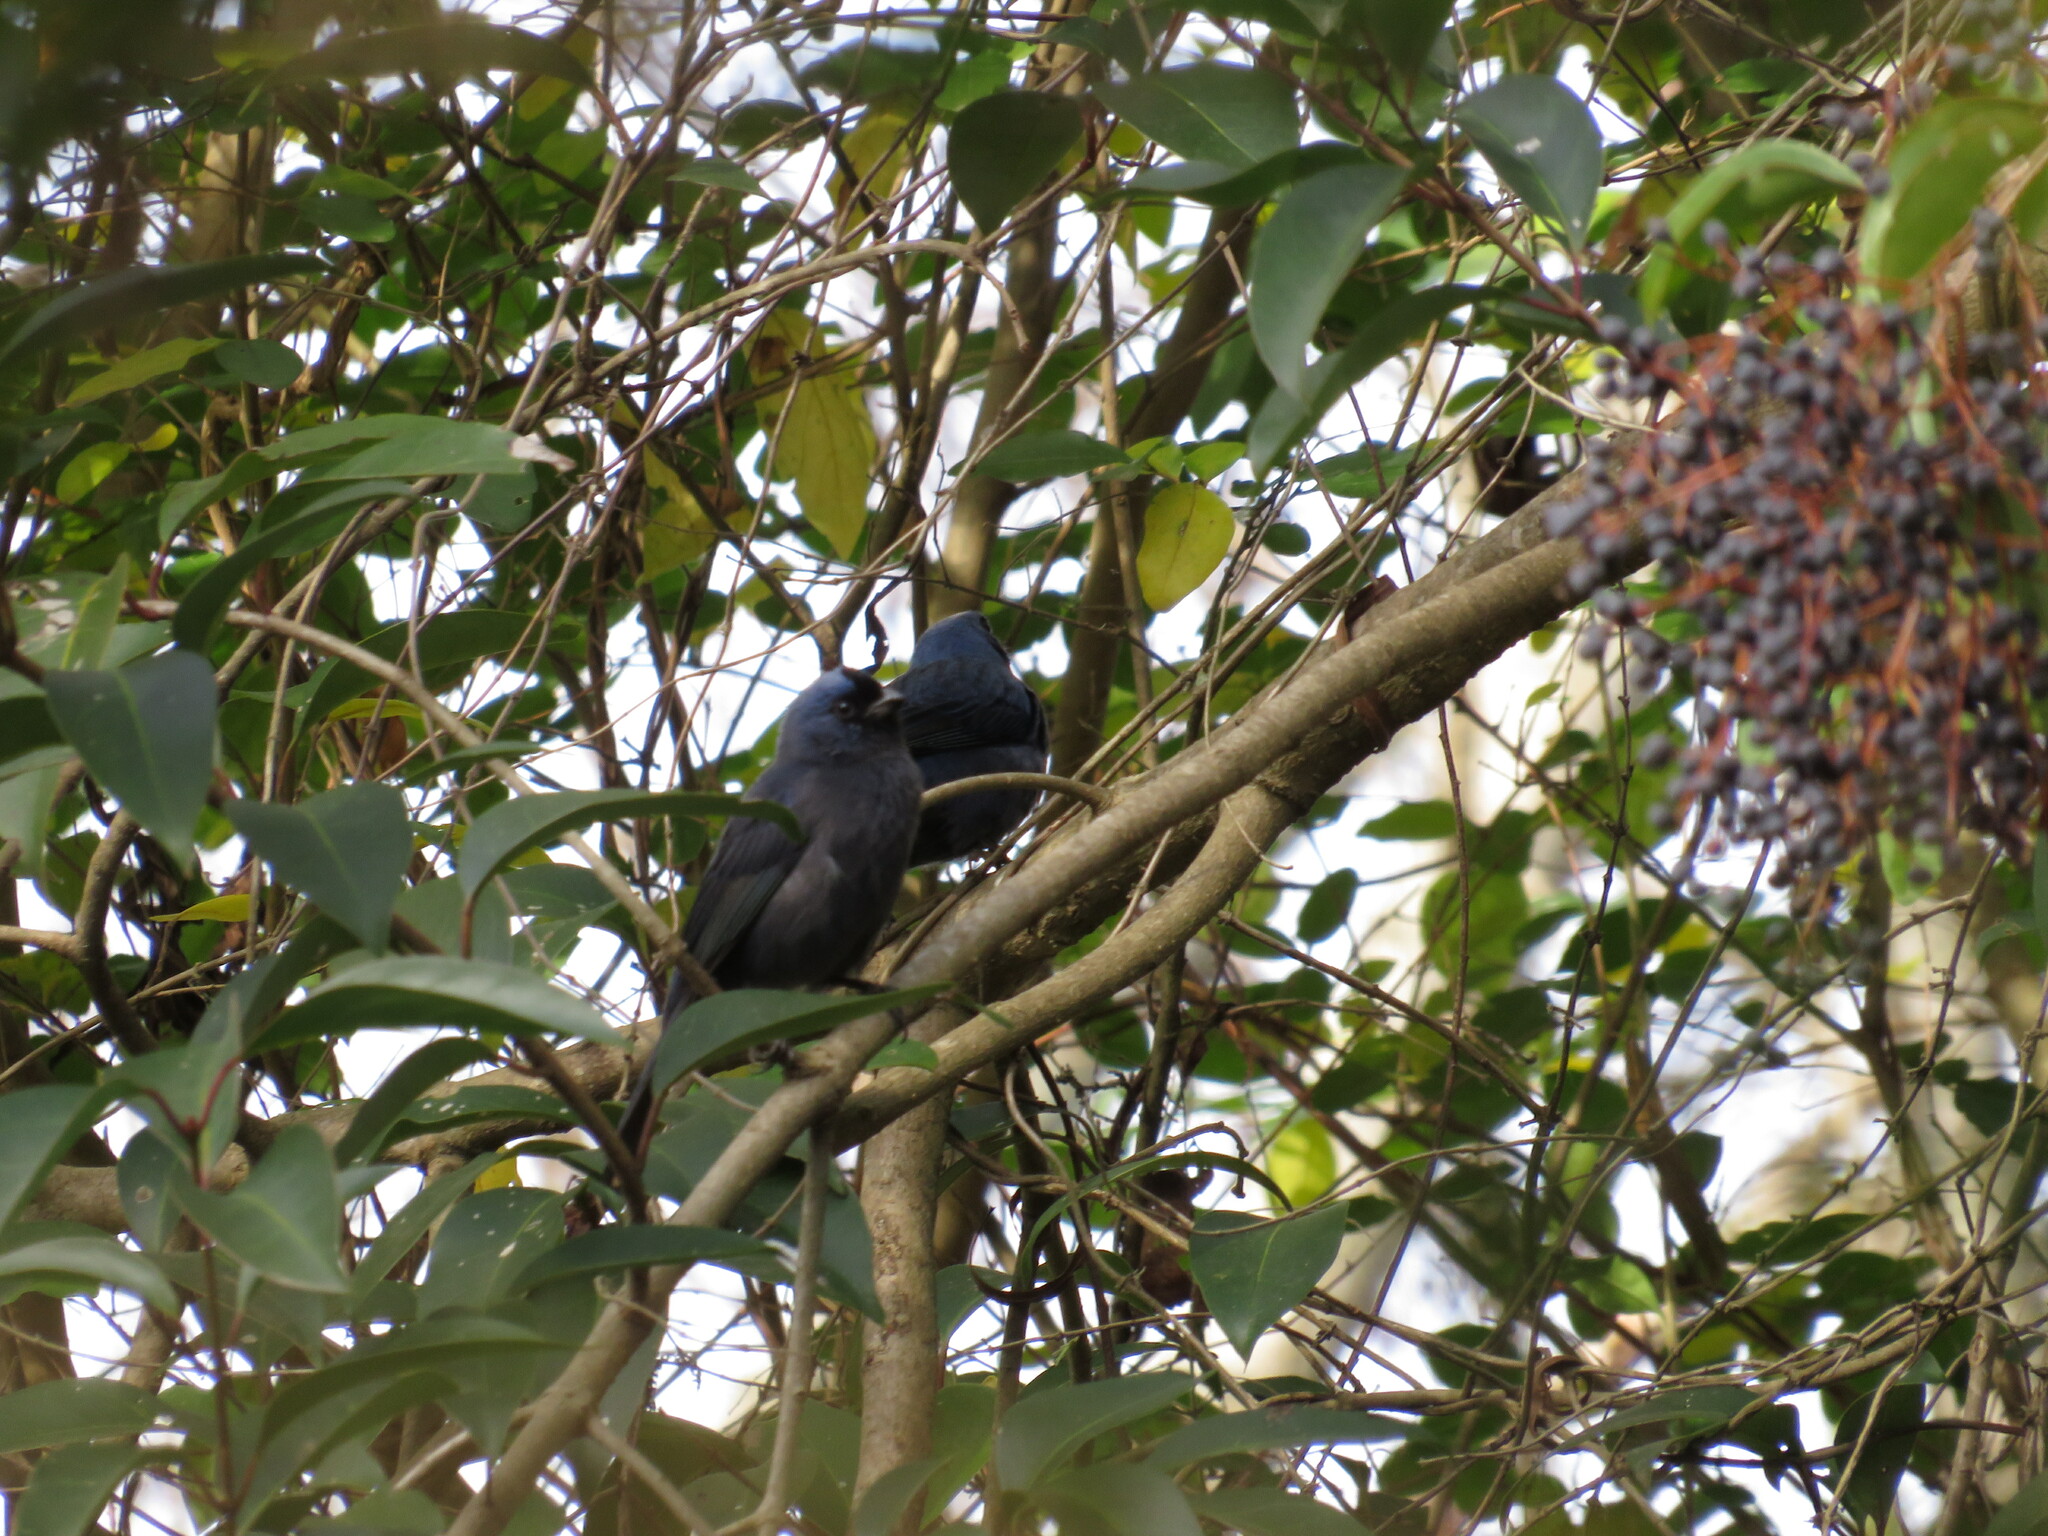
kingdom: Animalia
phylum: Chordata
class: Aves
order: Passeriformes
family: Thraupidae
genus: Stephanophorus
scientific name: Stephanophorus diadematus
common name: Diademed tanager
